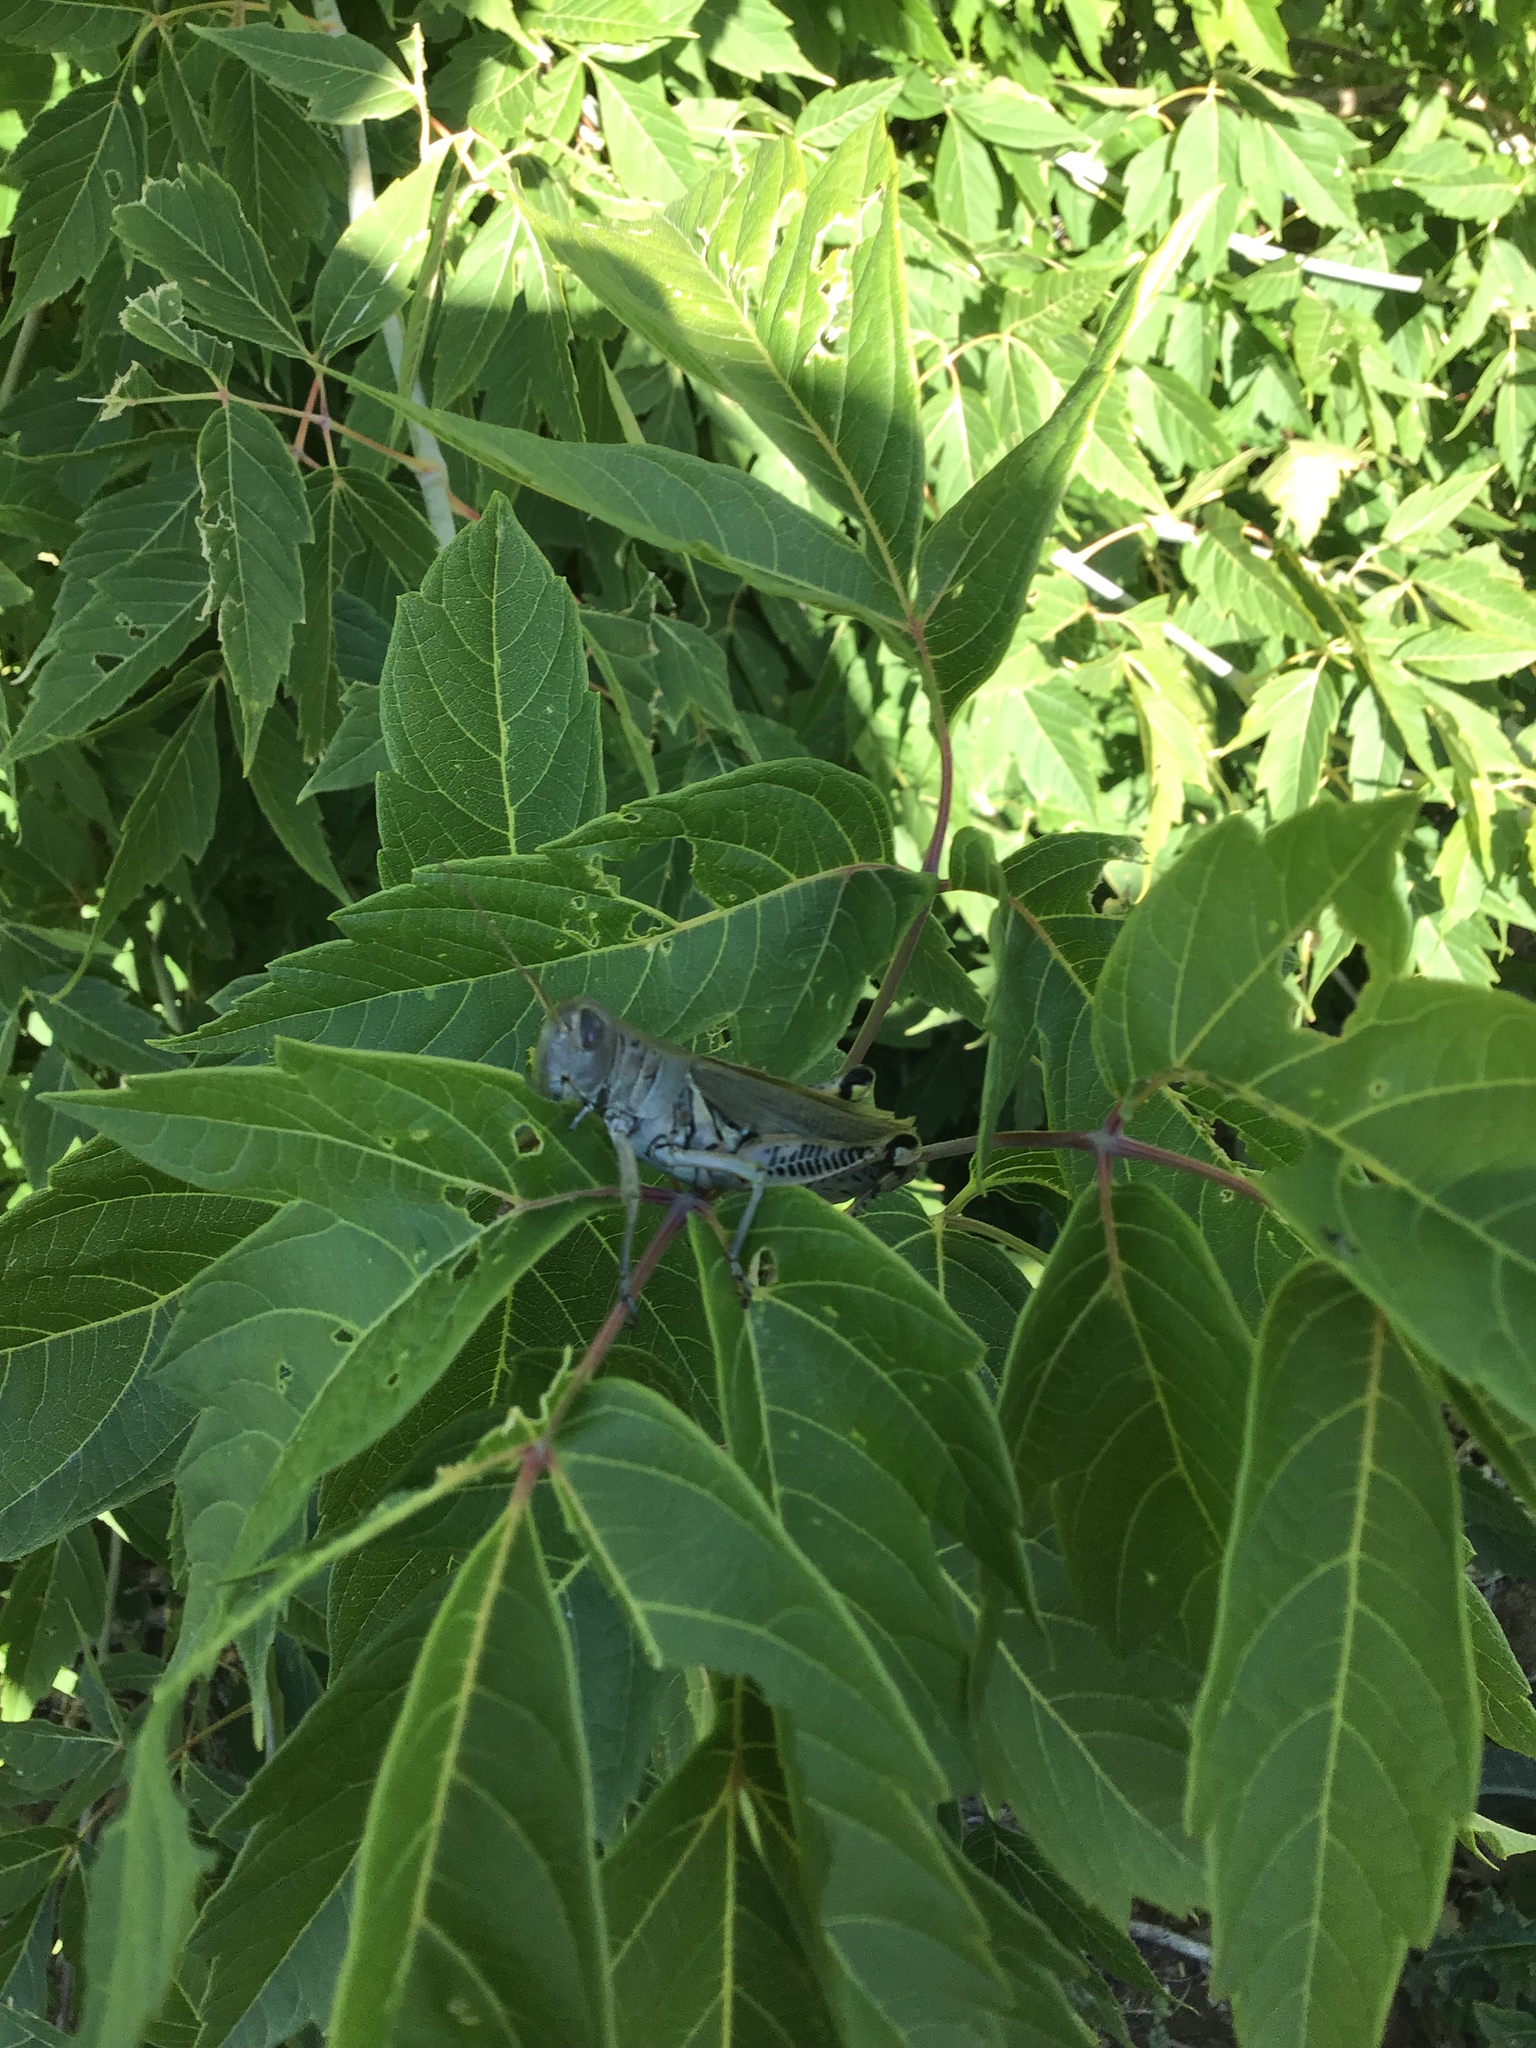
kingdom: Animalia
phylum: Arthropoda
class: Insecta
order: Orthoptera
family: Acrididae
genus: Melanoplus
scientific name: Melanoplus differentialis
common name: Differential grasshopper
